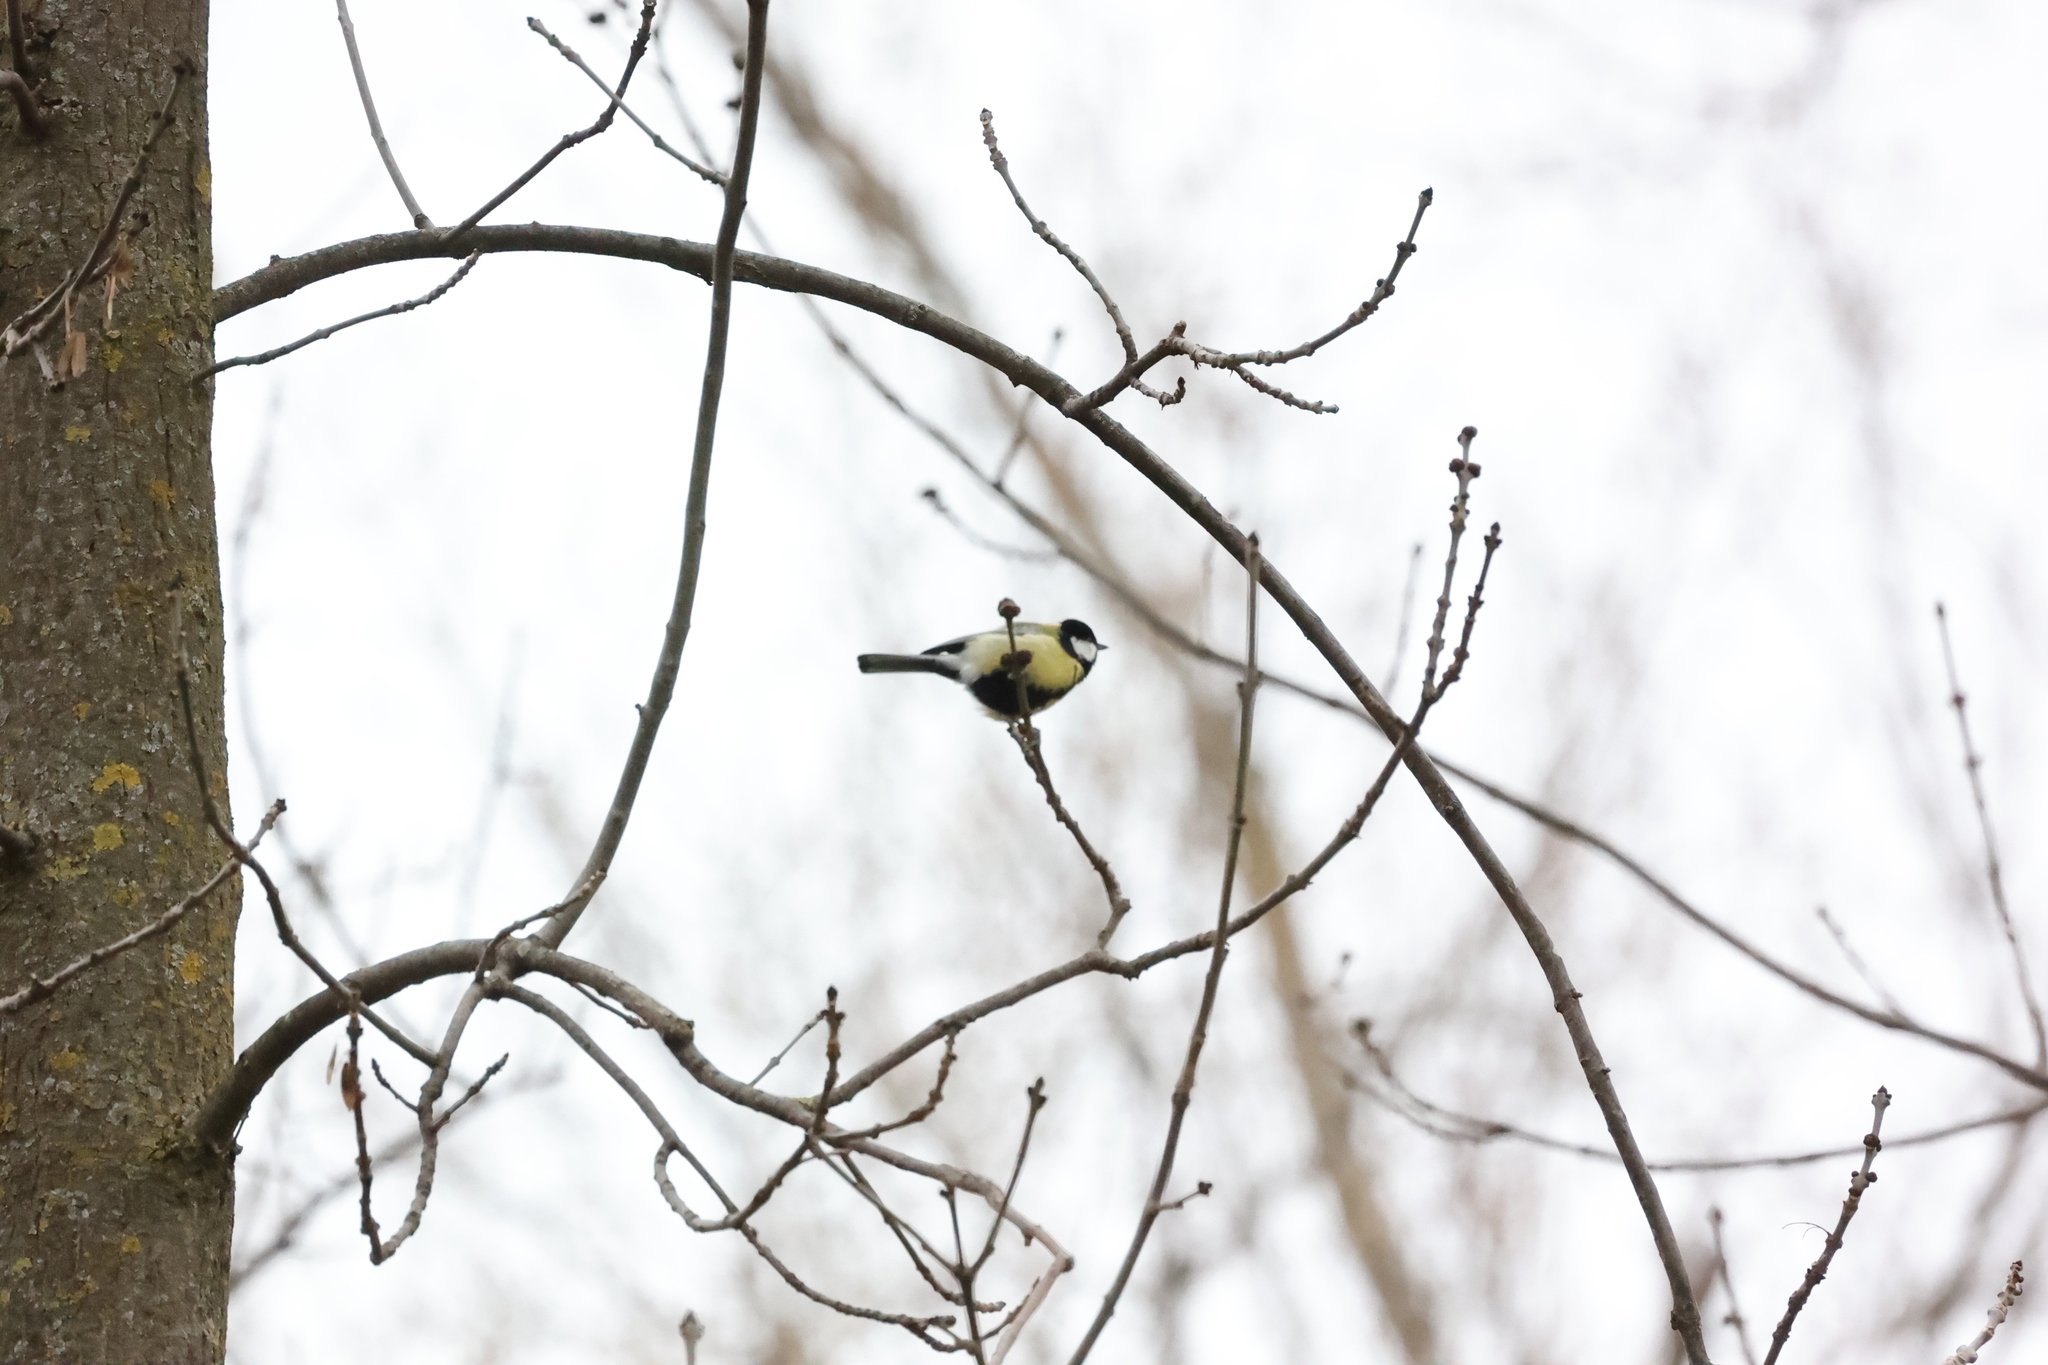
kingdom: Animalia
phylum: Chordata
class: Aves
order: Passeriformes
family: Paridae
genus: Parus
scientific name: Parus major
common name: Great tit
